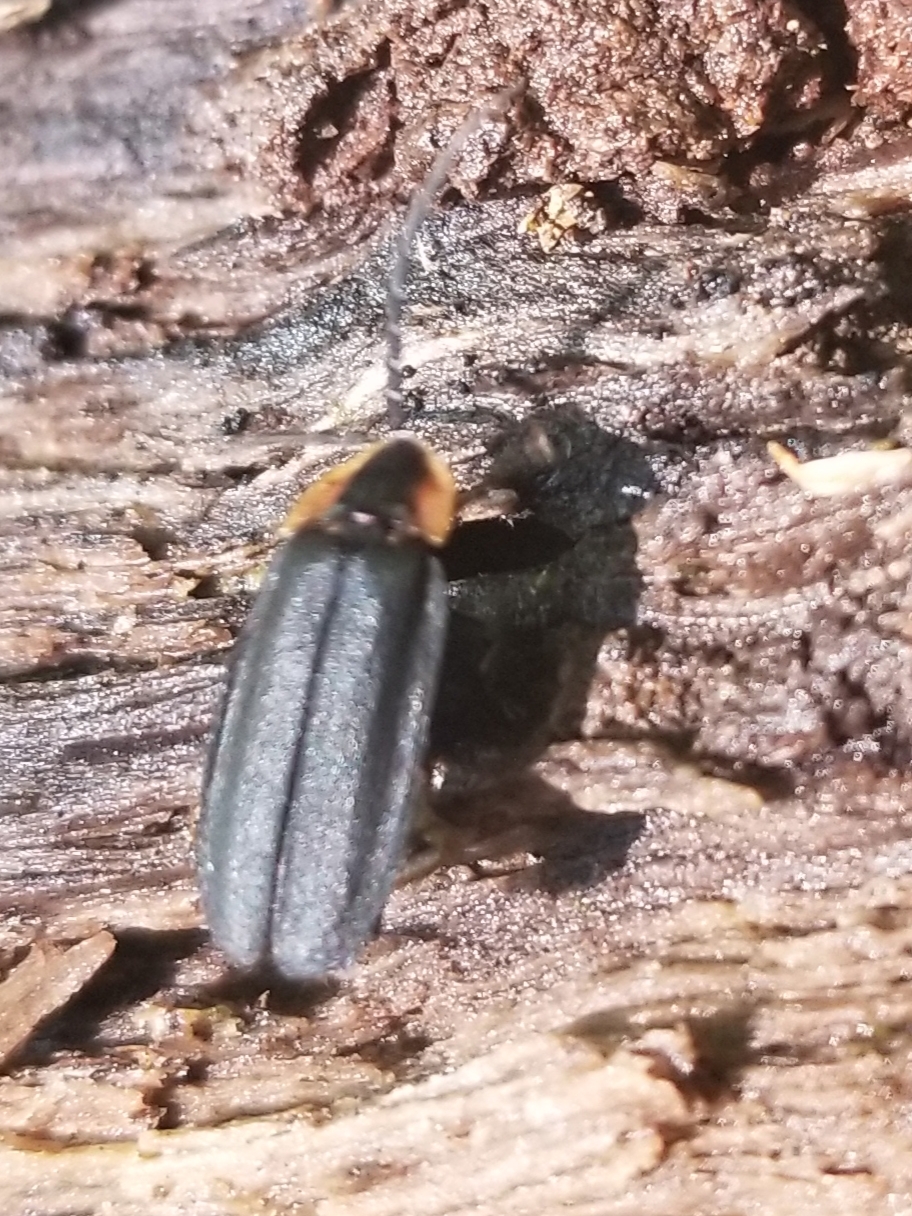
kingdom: Animalia
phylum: Arthropoda
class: Insecta
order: Coleoptera
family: Lampyridae
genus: Lucidota
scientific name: Lucidota atra
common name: Black firefly
